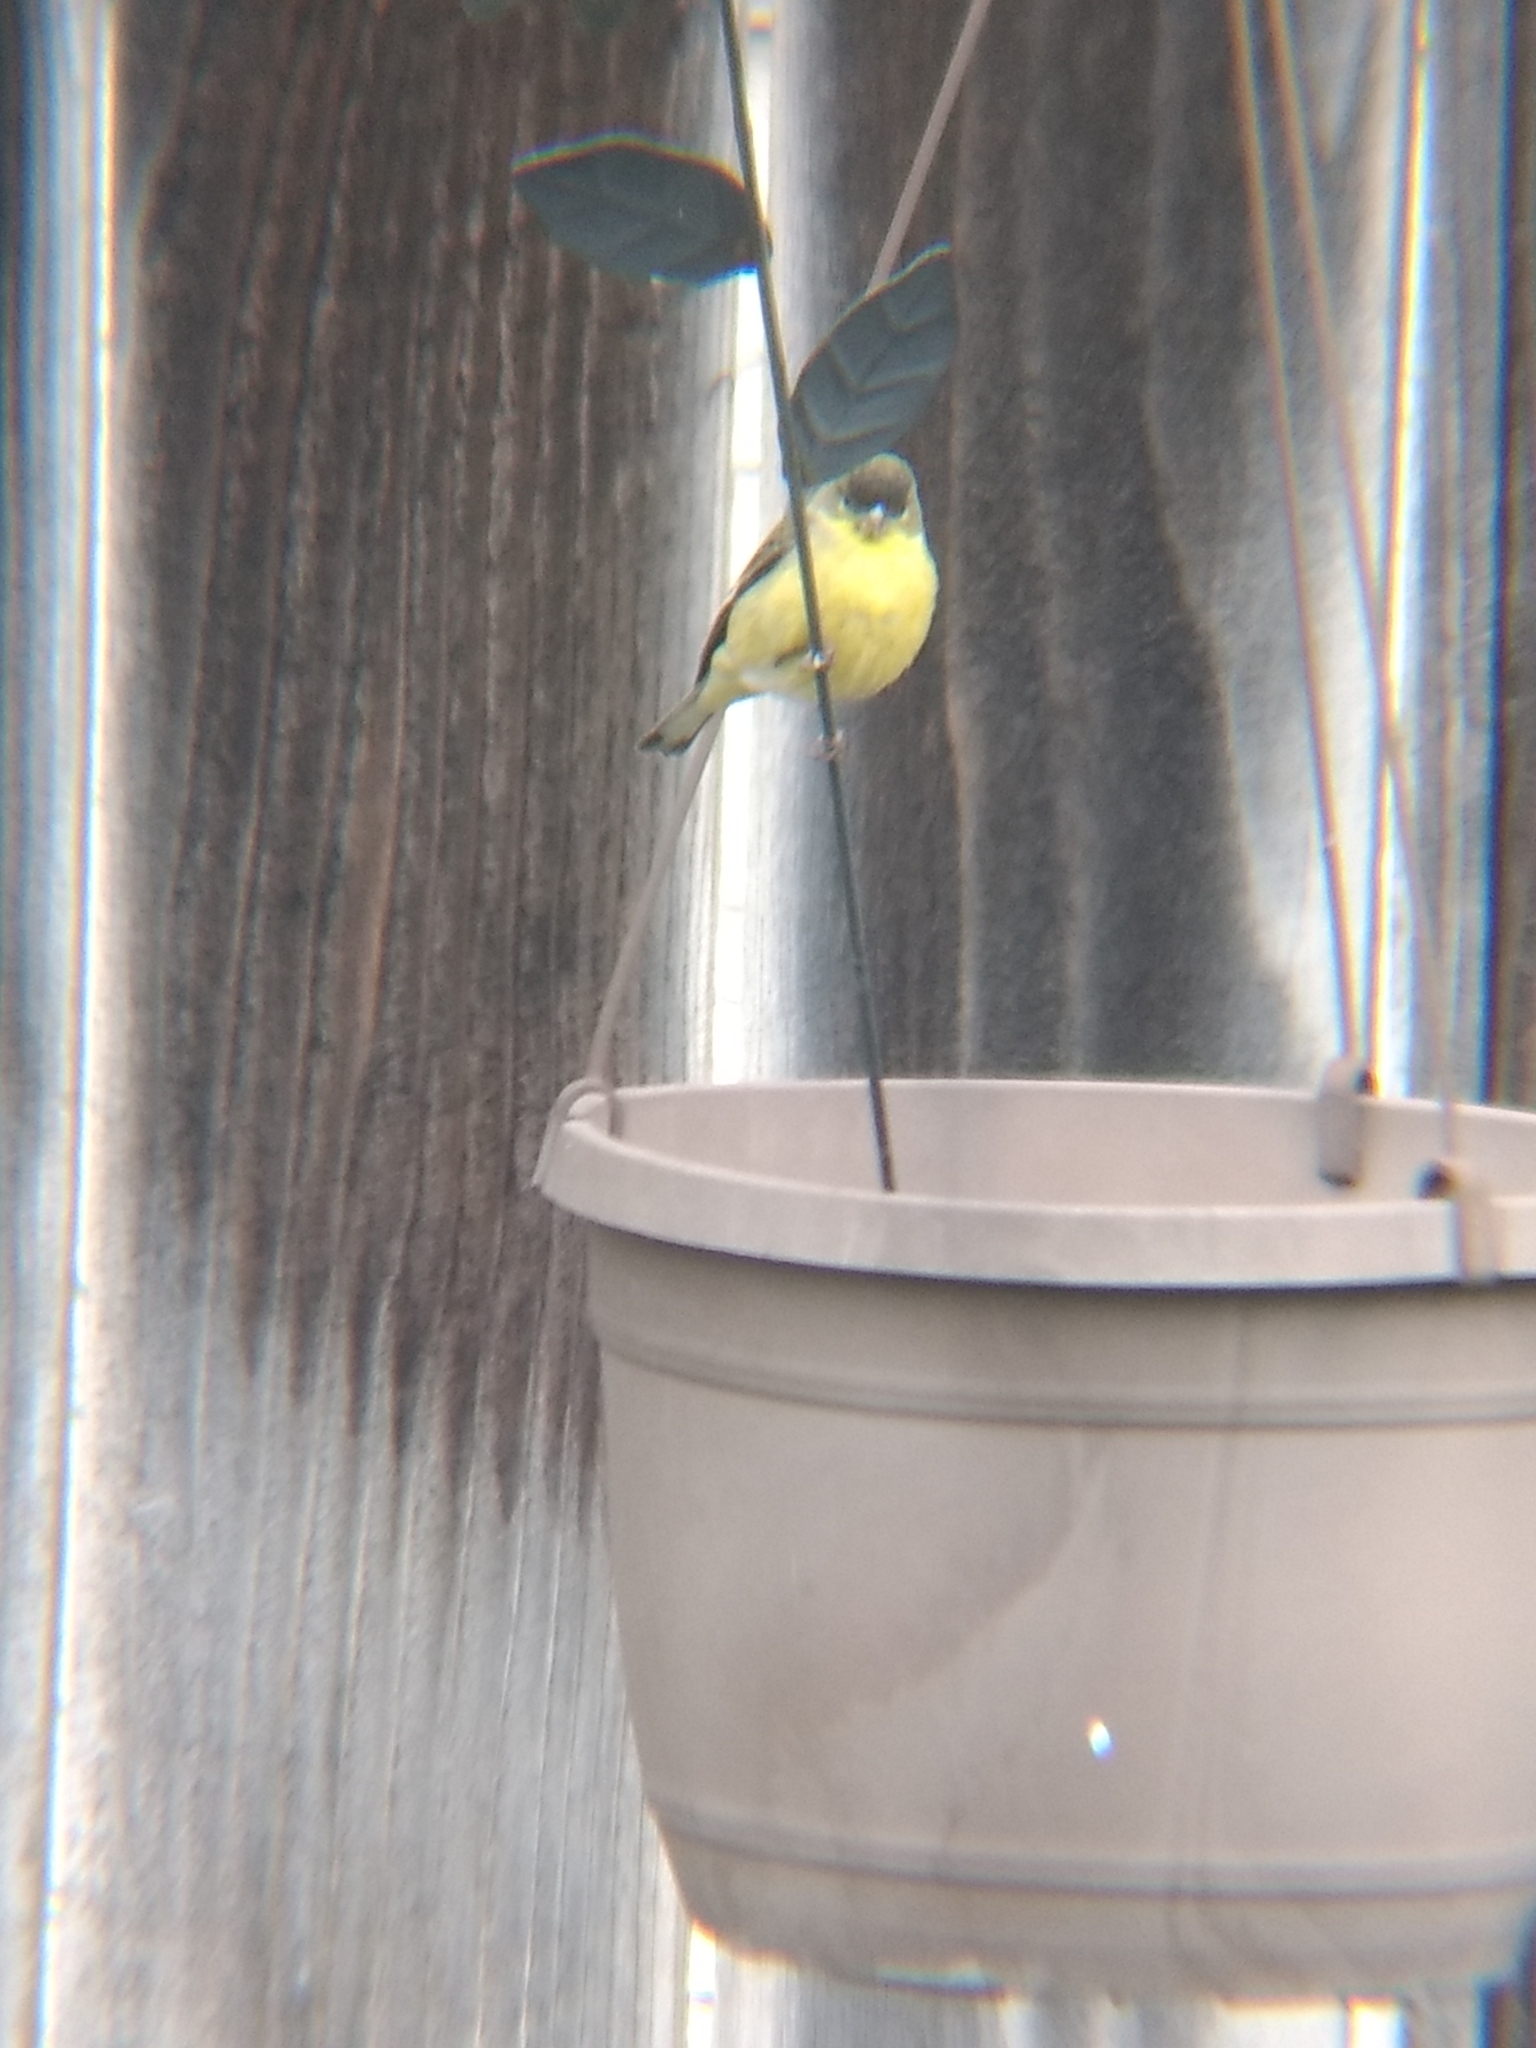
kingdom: Animalia
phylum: Chordata
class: Aves
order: Passeriformes
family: Fringillidae
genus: Spinus
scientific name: Spinus psaltria
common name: Lesser goldfinch
